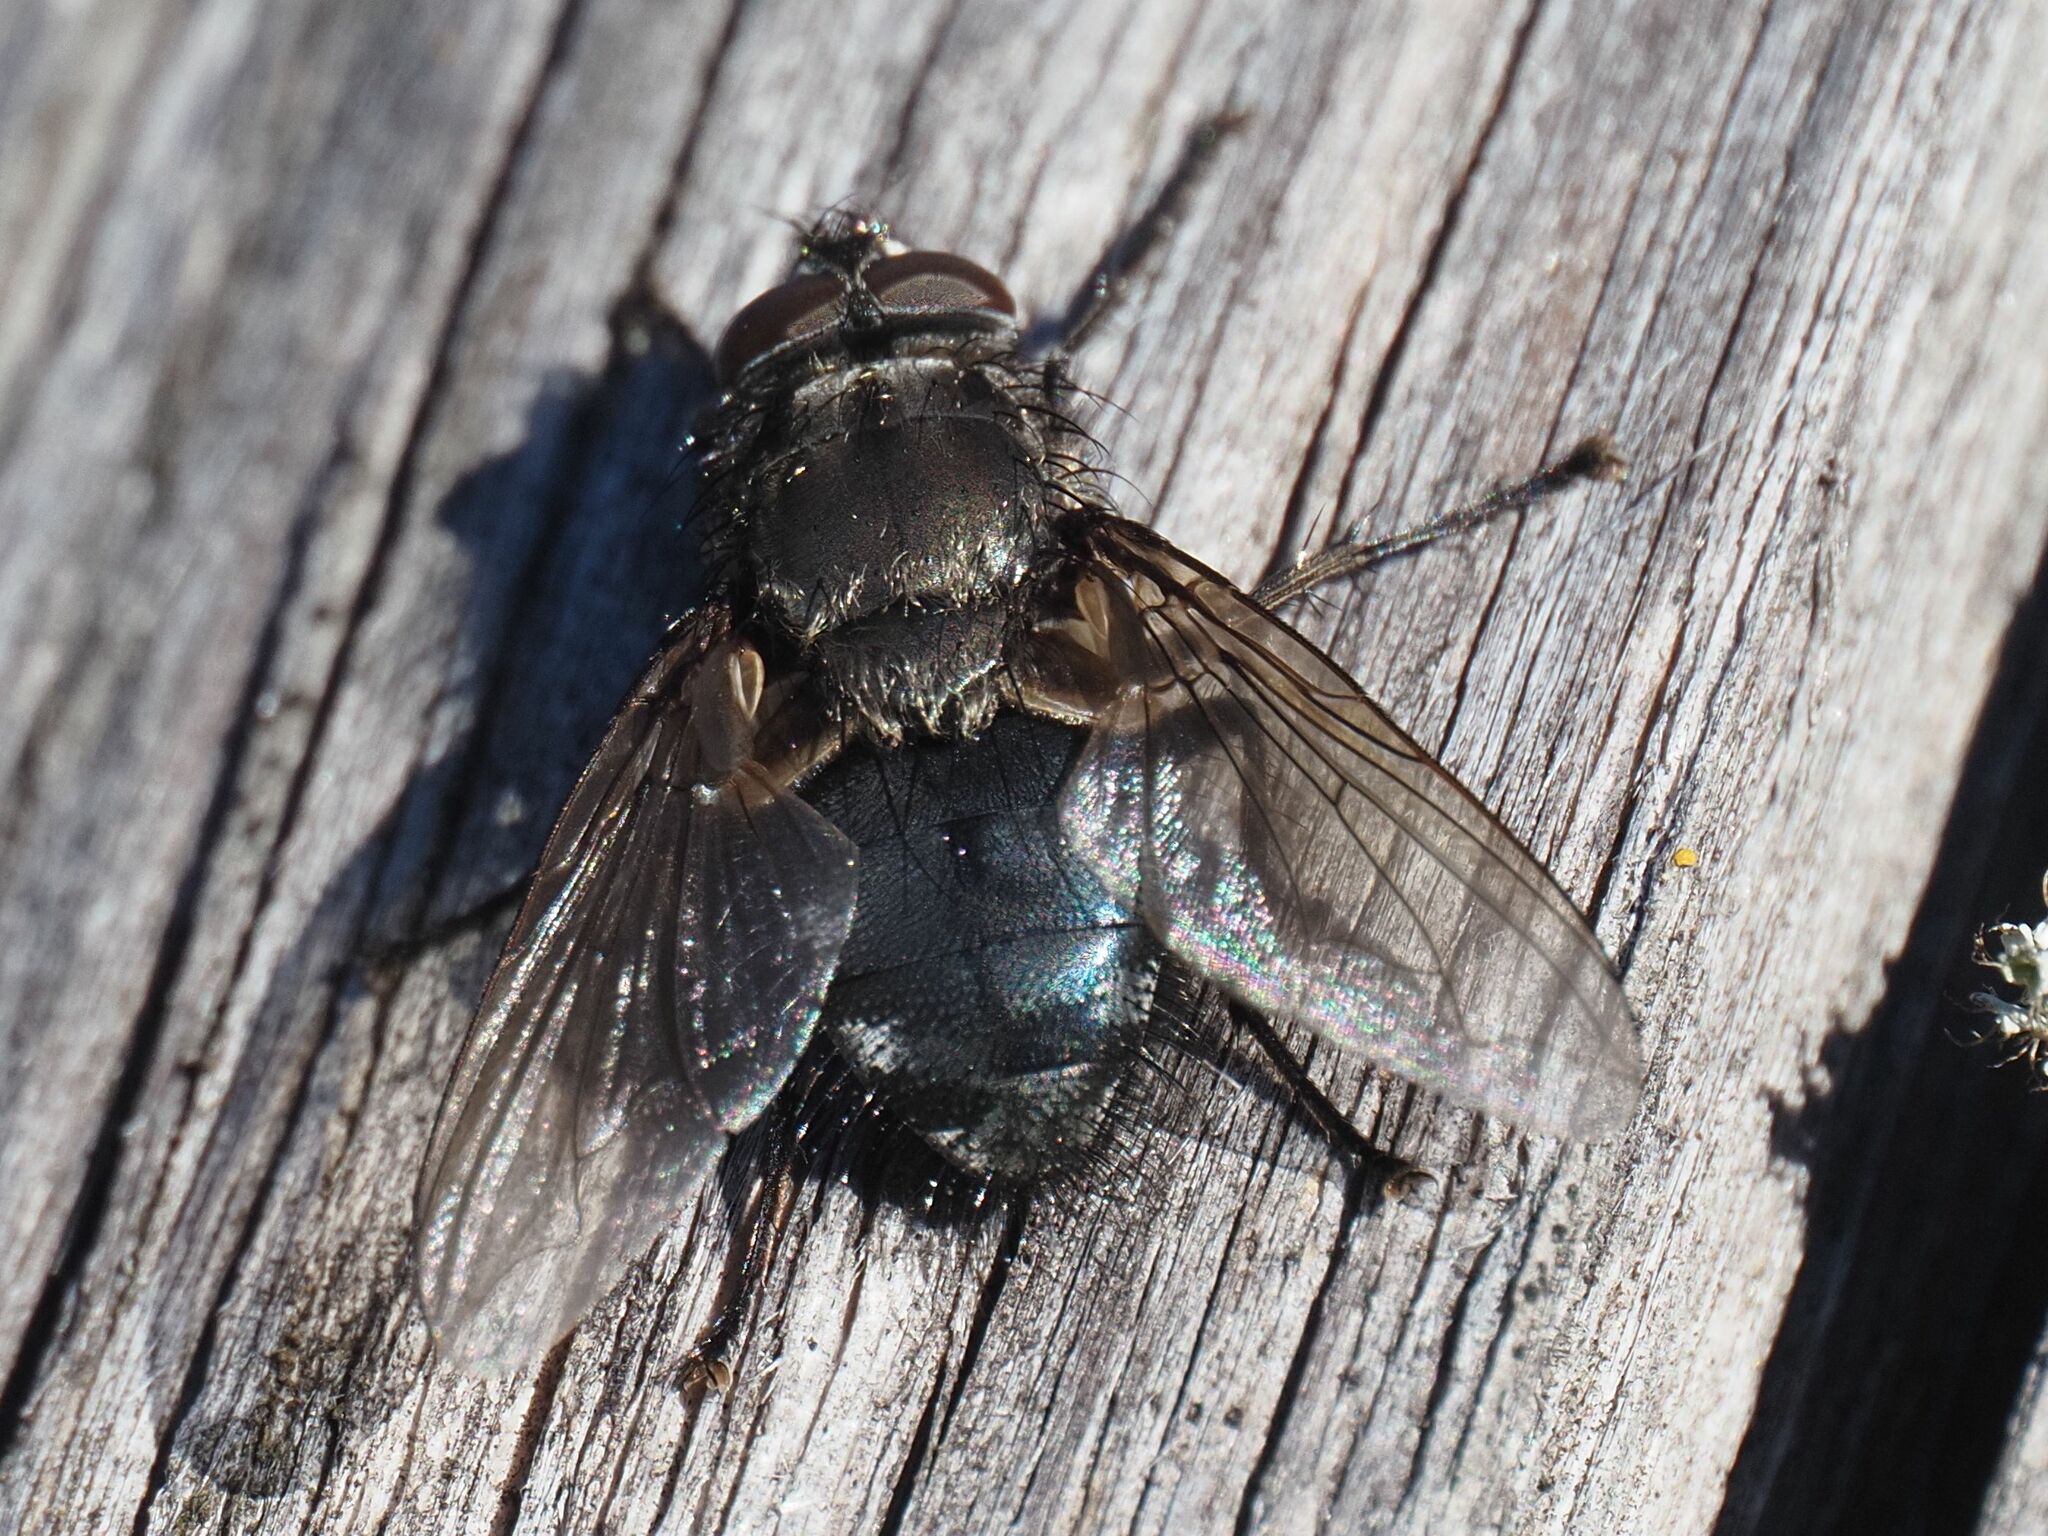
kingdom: Animalia
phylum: Arthropoda
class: Insecta
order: Diptera
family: Polleniidae
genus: Pollenia
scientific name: Pollenia vagabunda
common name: Vagabund cluster fly
